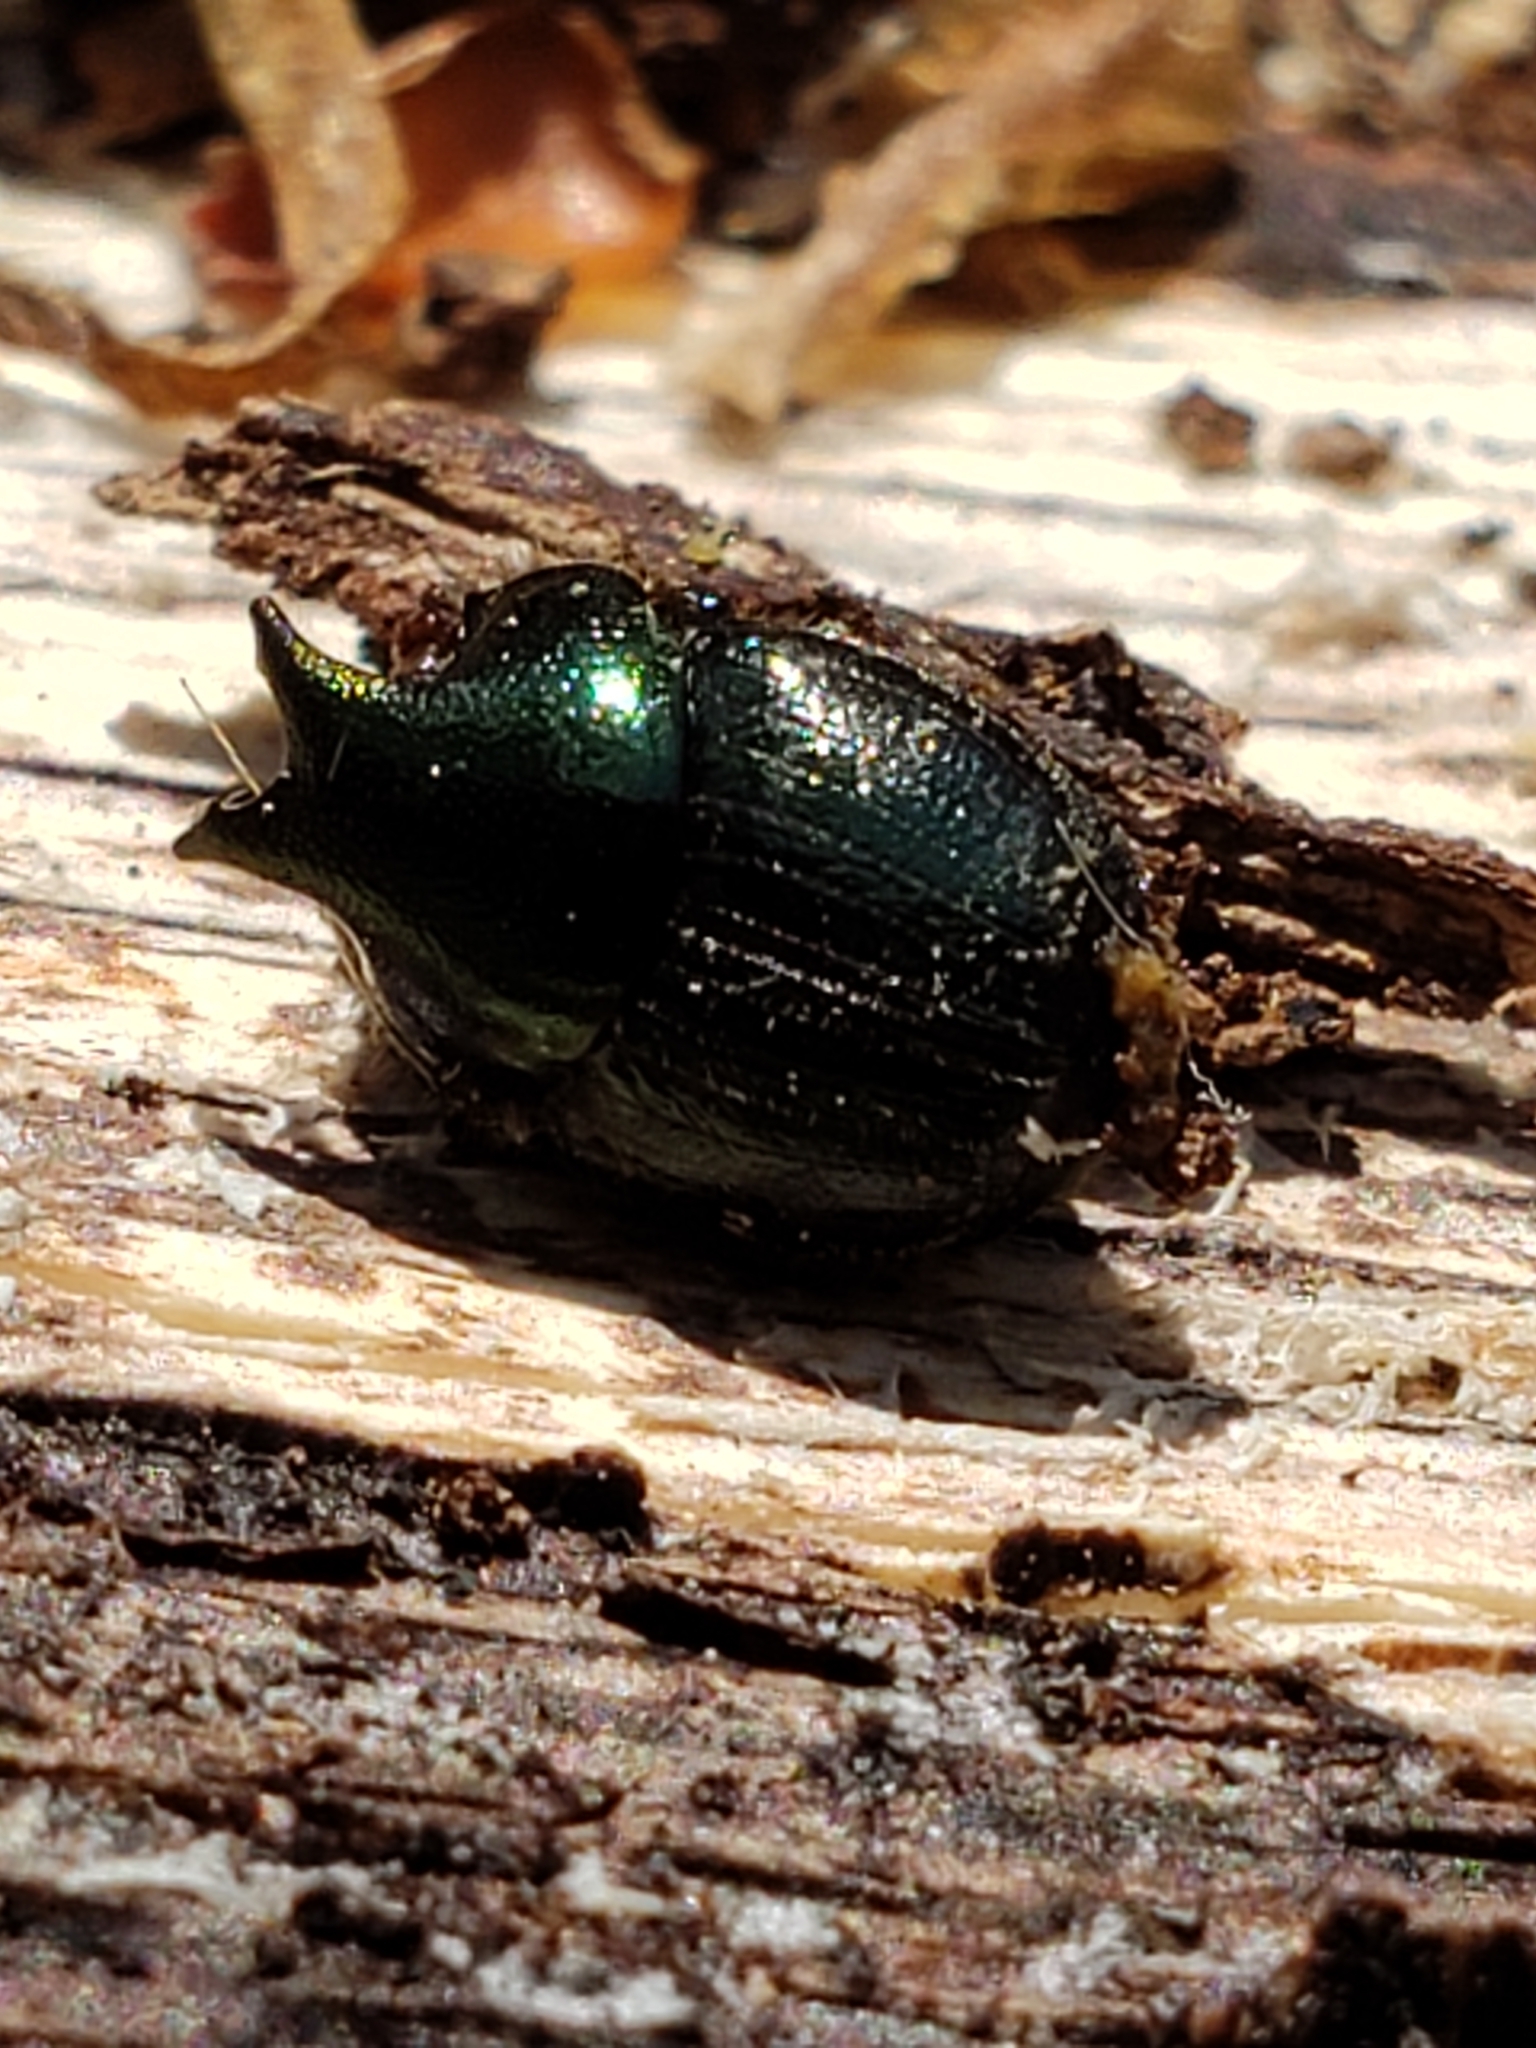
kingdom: Animalia
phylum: Arthropoda
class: Insecta
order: Coleoptera
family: Scarabaeidae
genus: Onthophagus
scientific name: Onthophagus orpheus
